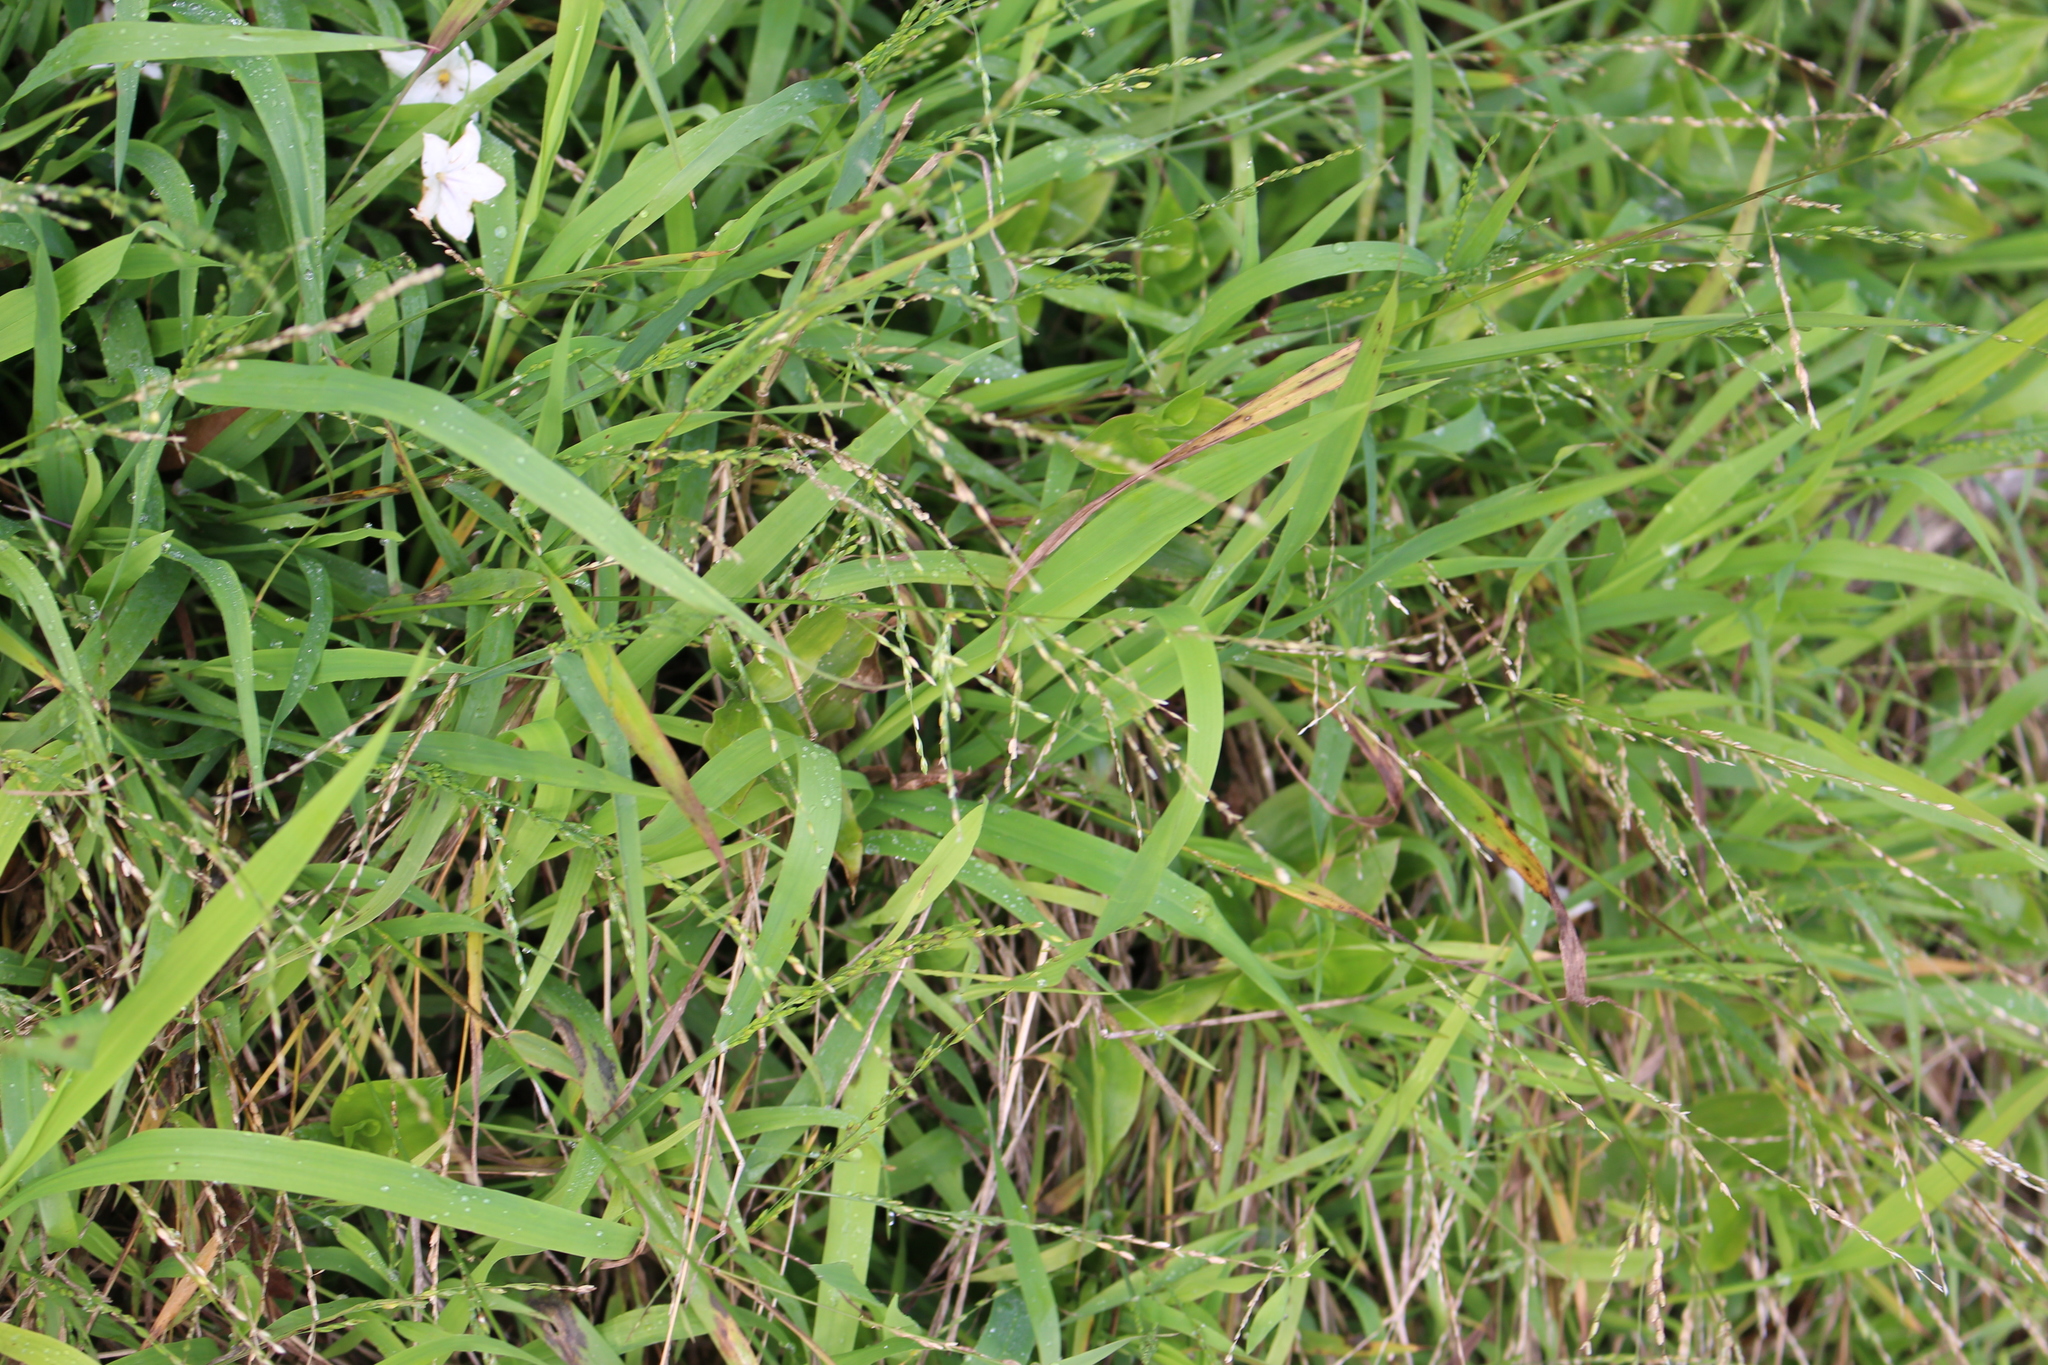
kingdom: Plantae
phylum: Tracheophyta
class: Liliopsida
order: Poales
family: Poaceae
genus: Ehrharta
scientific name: Ehrharta erecta
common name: Panic veldtgrass
